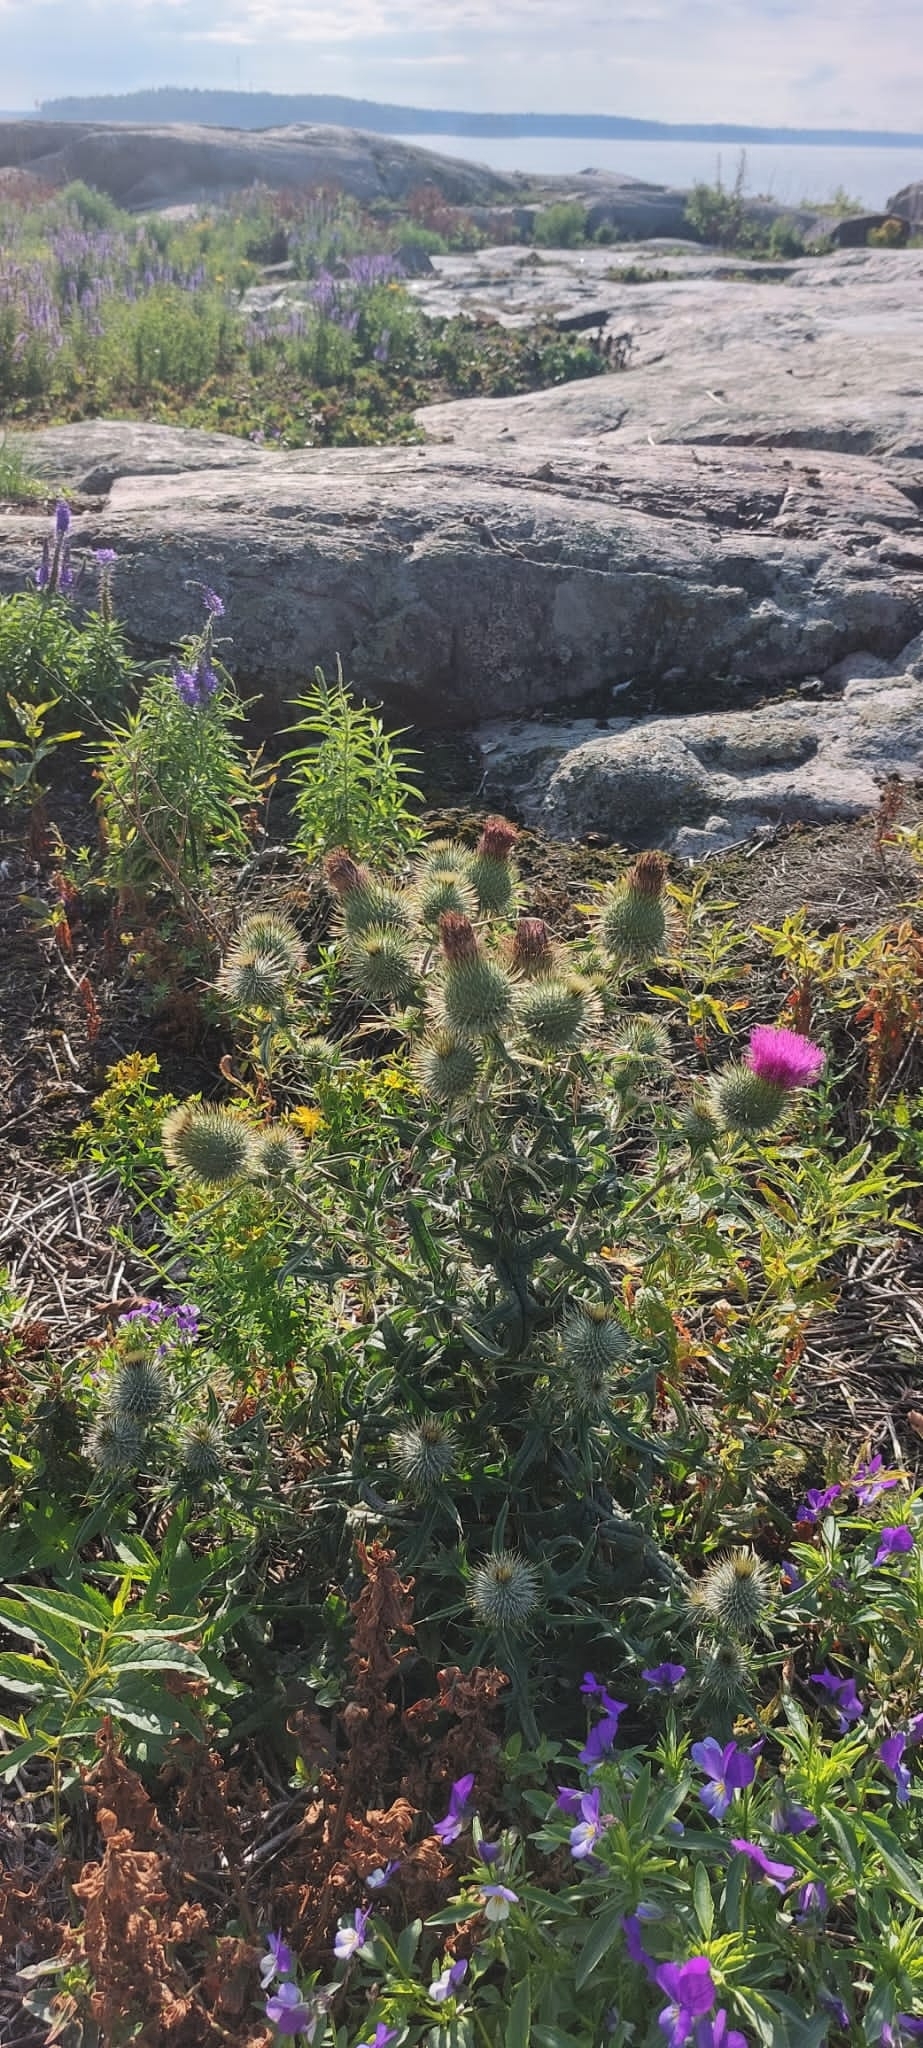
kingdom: Plantae
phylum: Tracheophyta
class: Magnoliopsida
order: Asterales
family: Asteraceae
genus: Cirsium
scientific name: Cirsium vulgare
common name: Bull thistle
